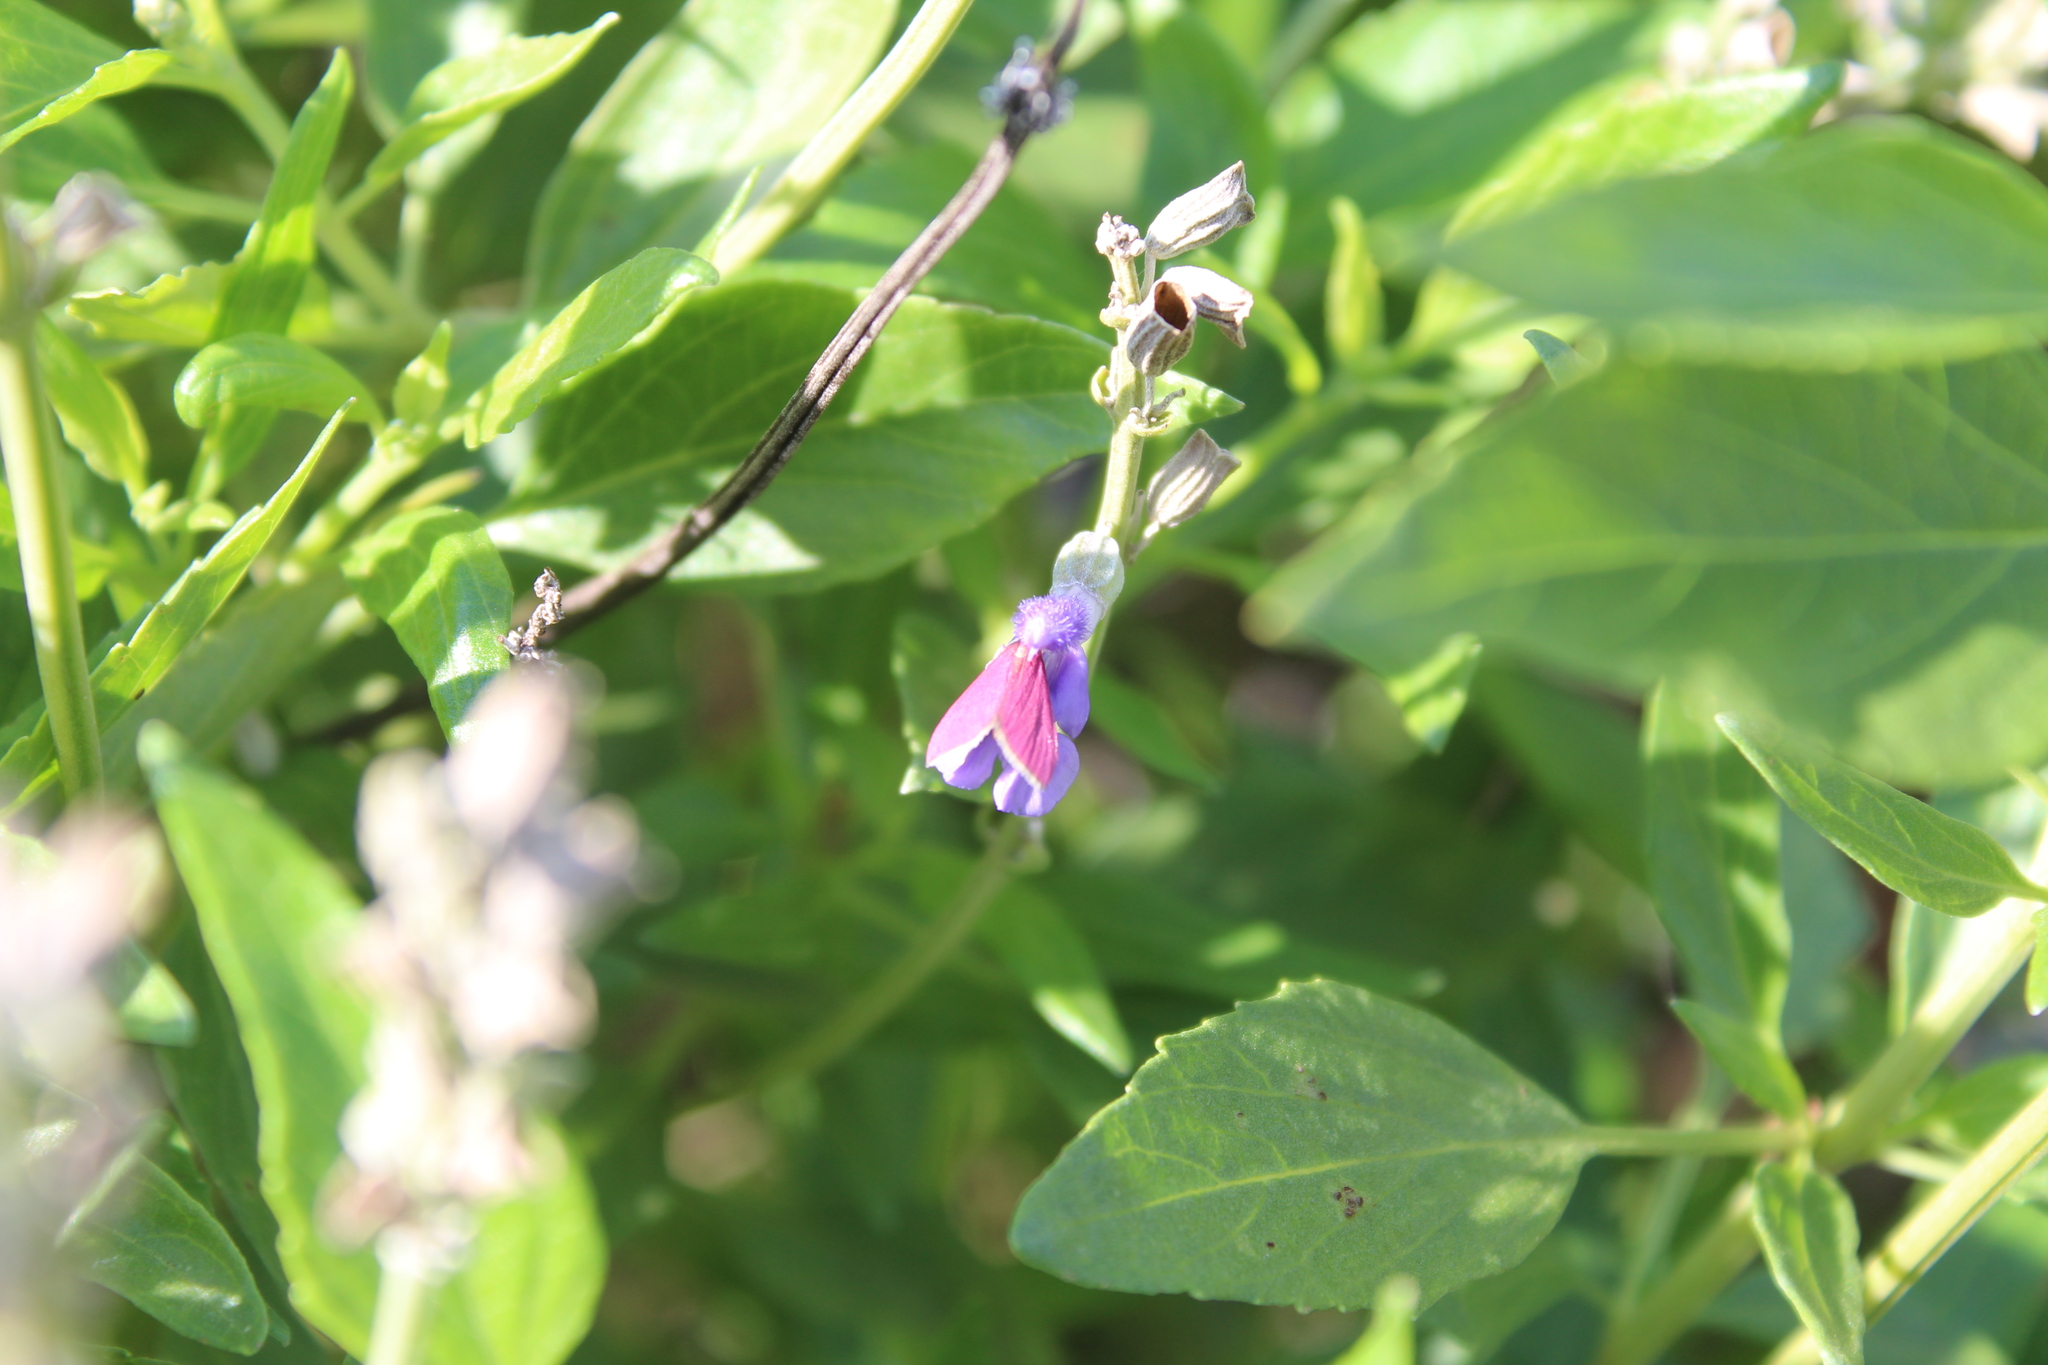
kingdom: Animalia
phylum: Arthropoda
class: Insecta
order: Lepidoptera
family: Crambidae
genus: Pyrausta
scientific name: Pyrausta inornatalis
